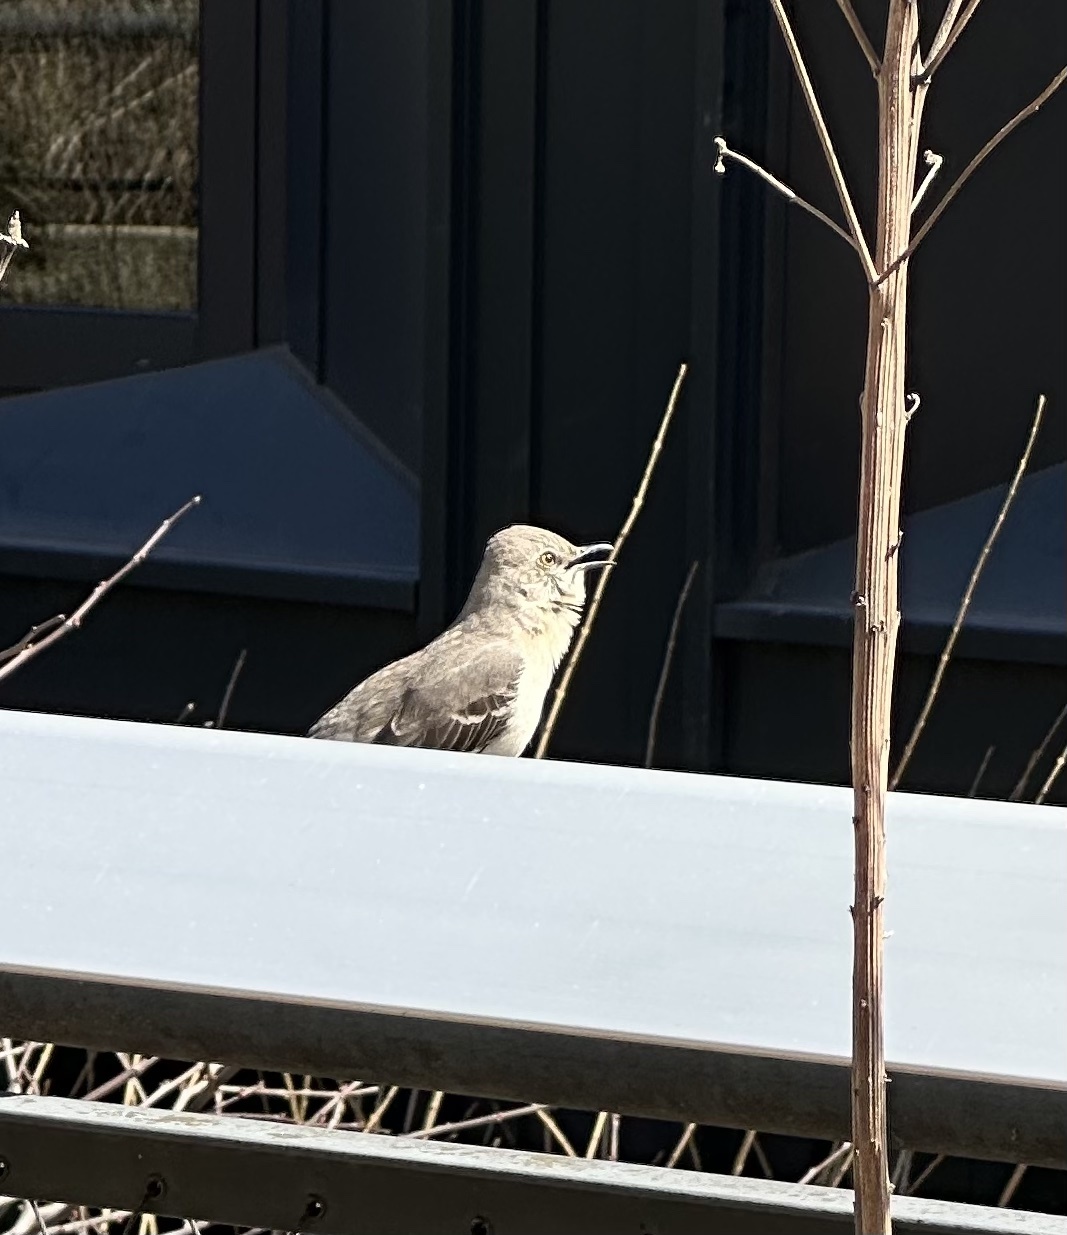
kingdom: Animalia
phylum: Chordata
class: Aves
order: Passeriformes
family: Mimidae
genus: Mimus
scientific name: Mimus polyglottos
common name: Northern mockingbird
